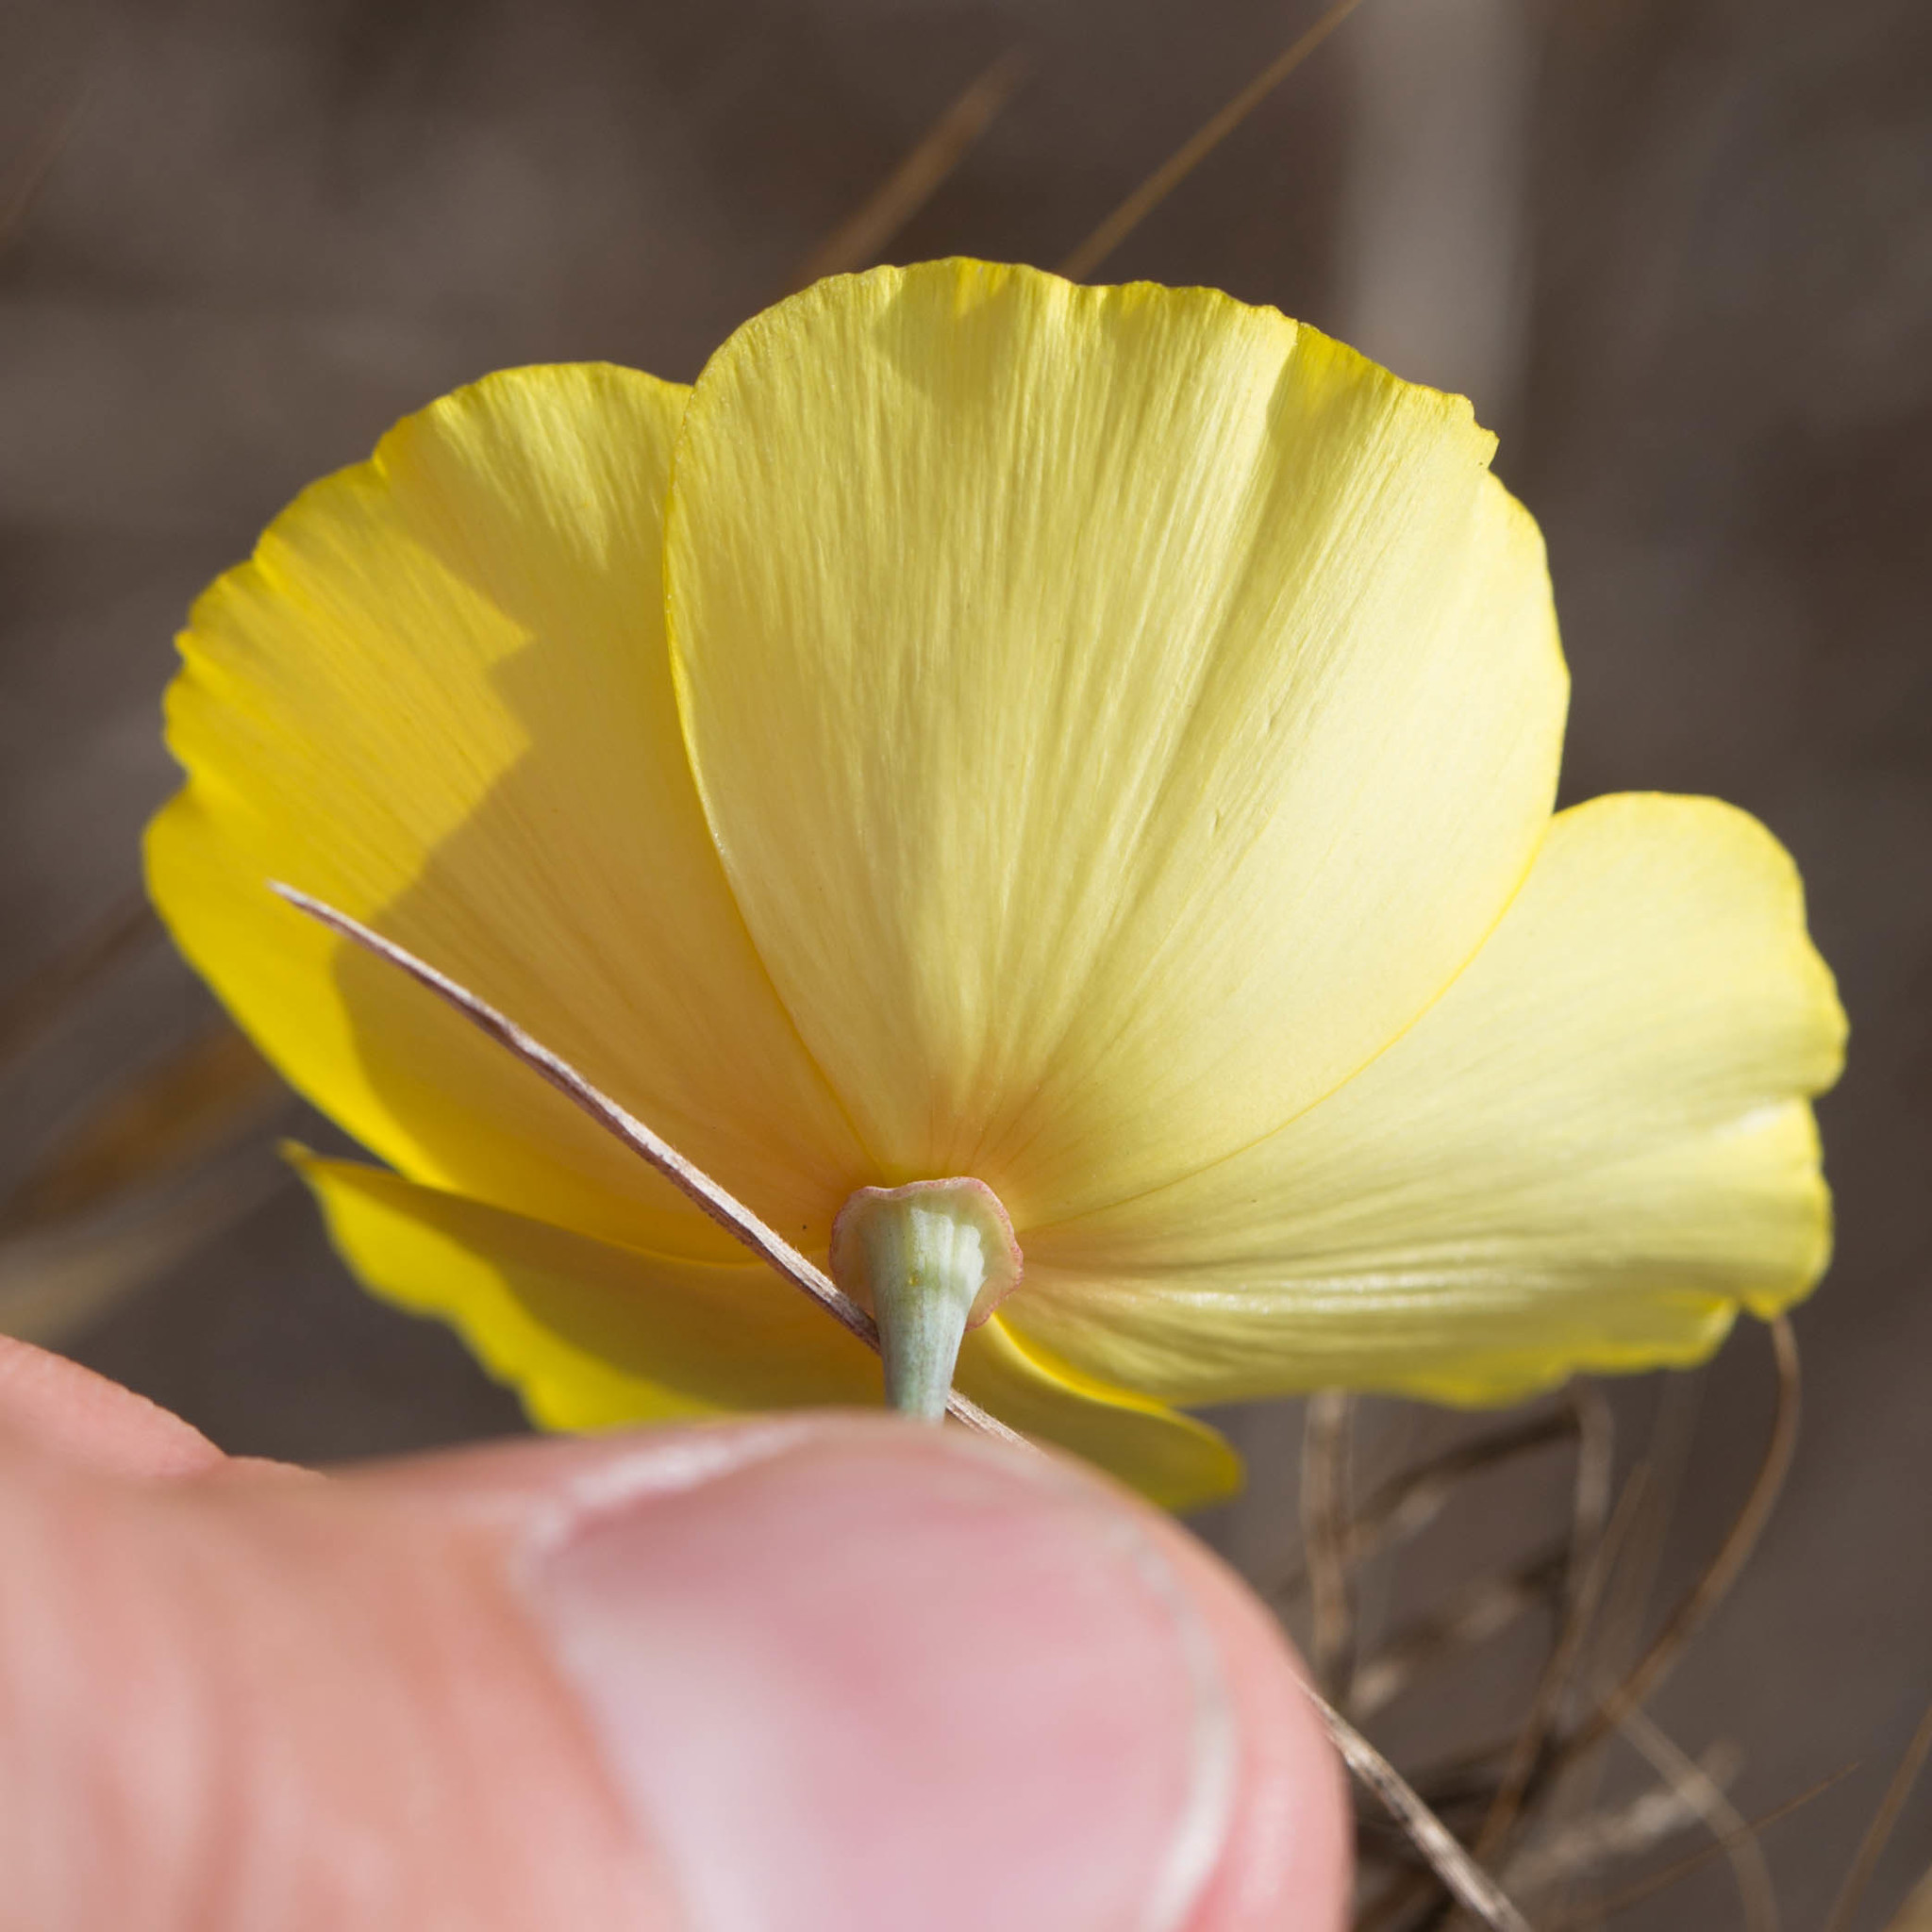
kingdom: Plantae
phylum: Tracheophyta
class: Magnoliopsida
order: Ranunculales
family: Papaveraceae
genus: Eschscholzia
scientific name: Eschscholzia californica
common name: California poppy
